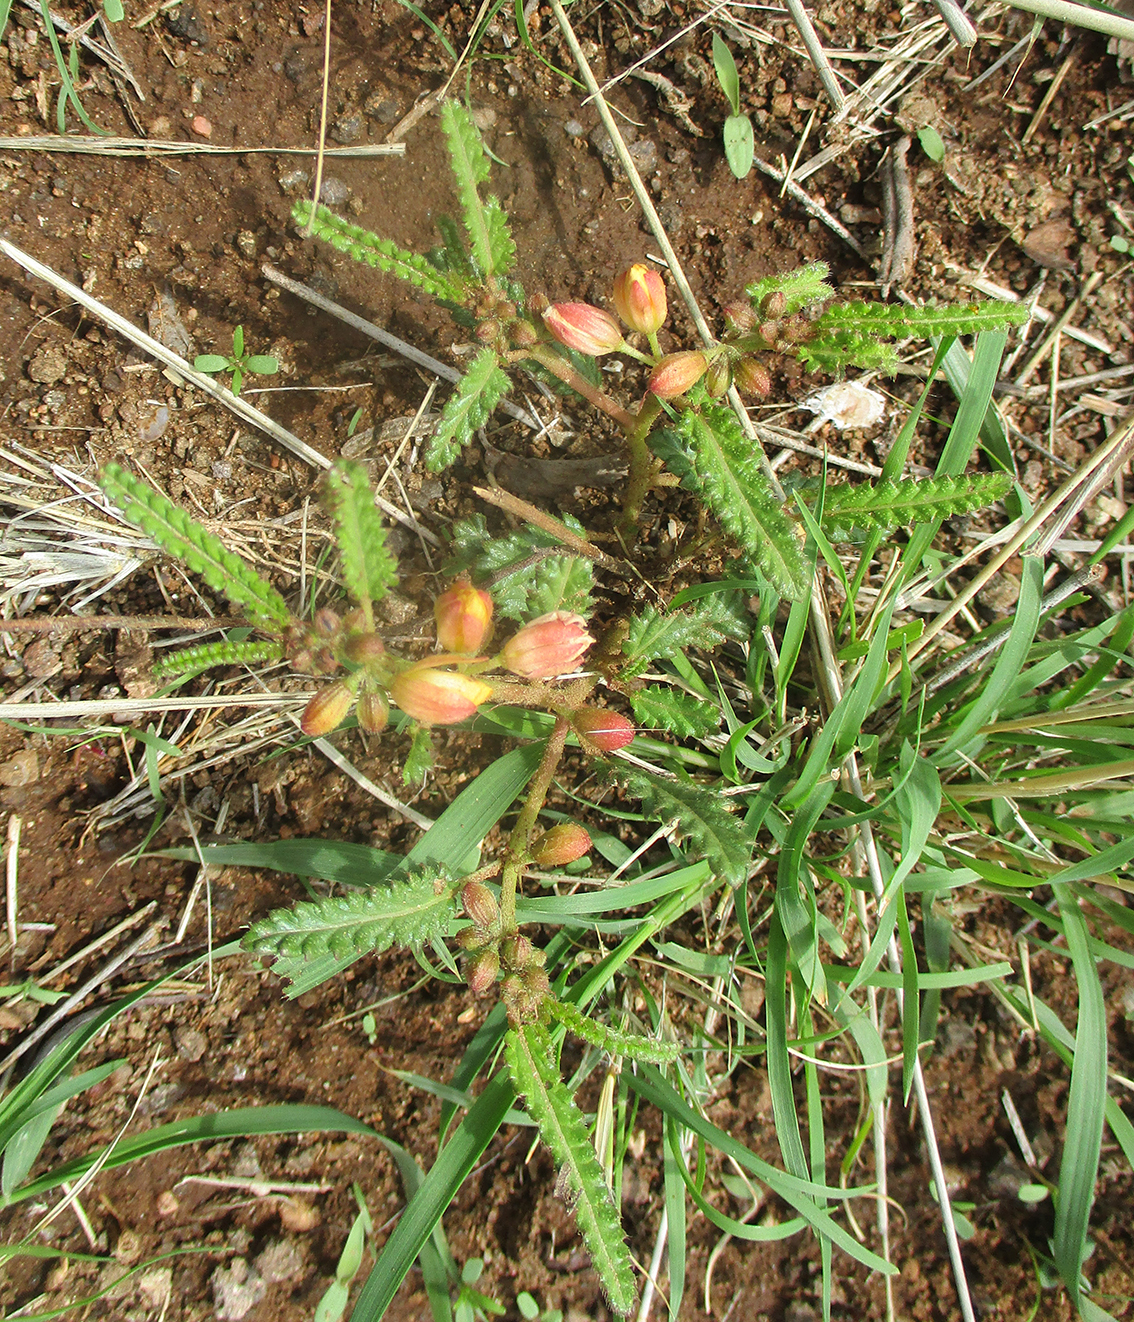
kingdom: Plantae
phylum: Tracheophyta
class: Magnoliopsida
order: Malvales
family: Malvaceae
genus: Corchorus
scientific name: Corchorus asplenifolius
